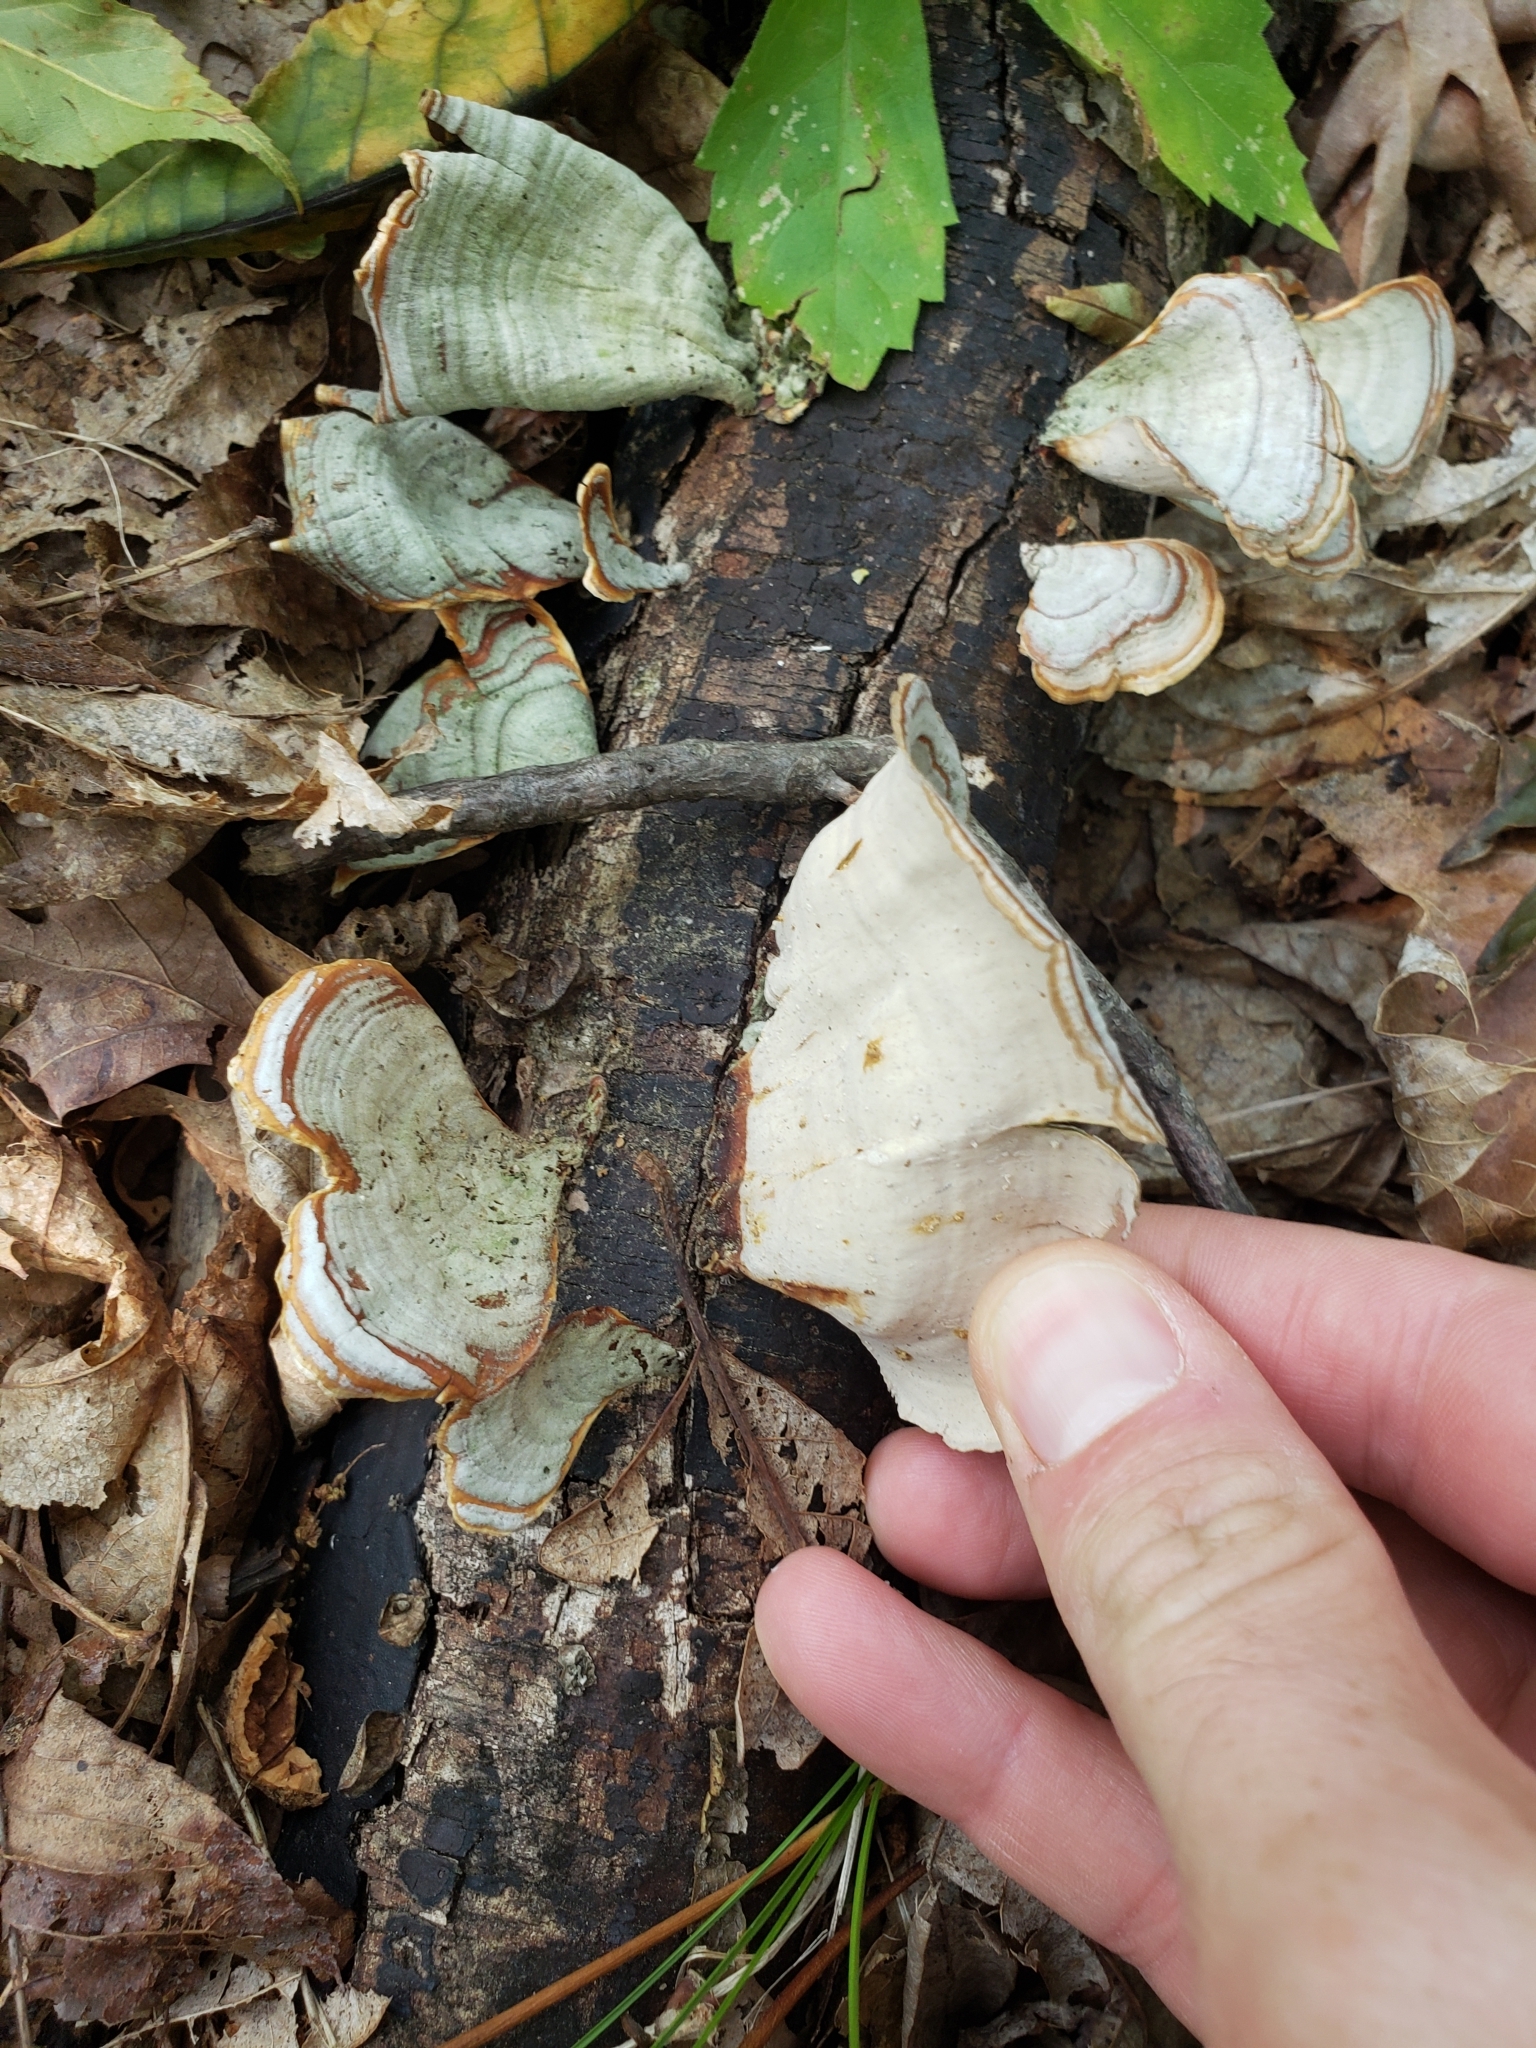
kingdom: Fungi
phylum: Basidiomycota
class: Agaricomycetes
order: Russulales
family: Stereaceae
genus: Stereum
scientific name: Stereum lobatum
